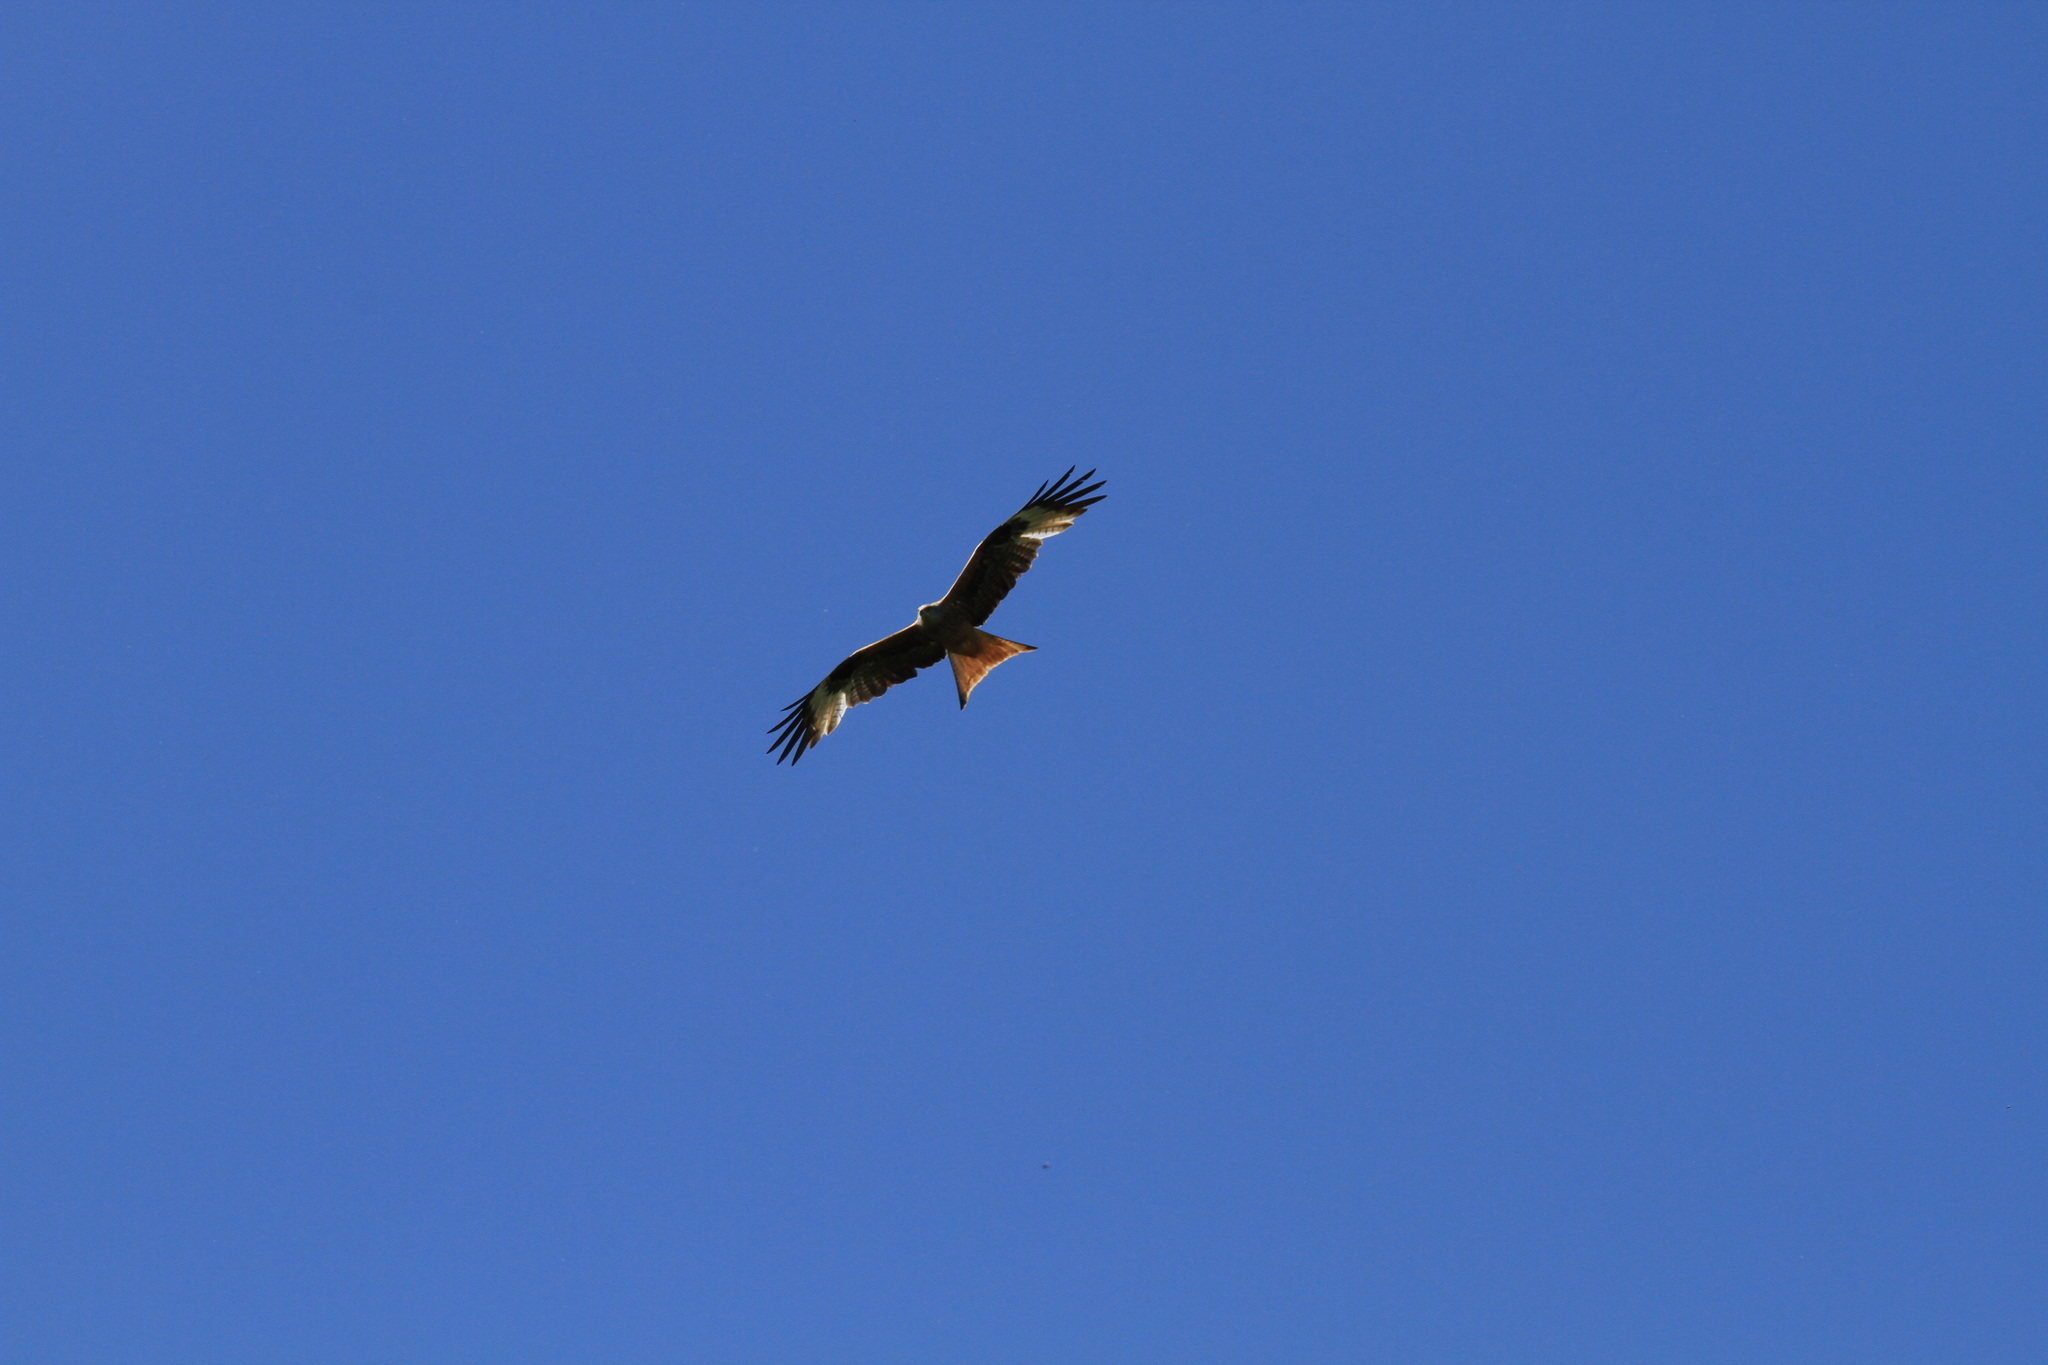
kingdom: Animalia
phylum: Chordata
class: Aves
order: Accipitriformes
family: Accipitridae
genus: Milvus
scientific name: Milvus milvus
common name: Red kite
